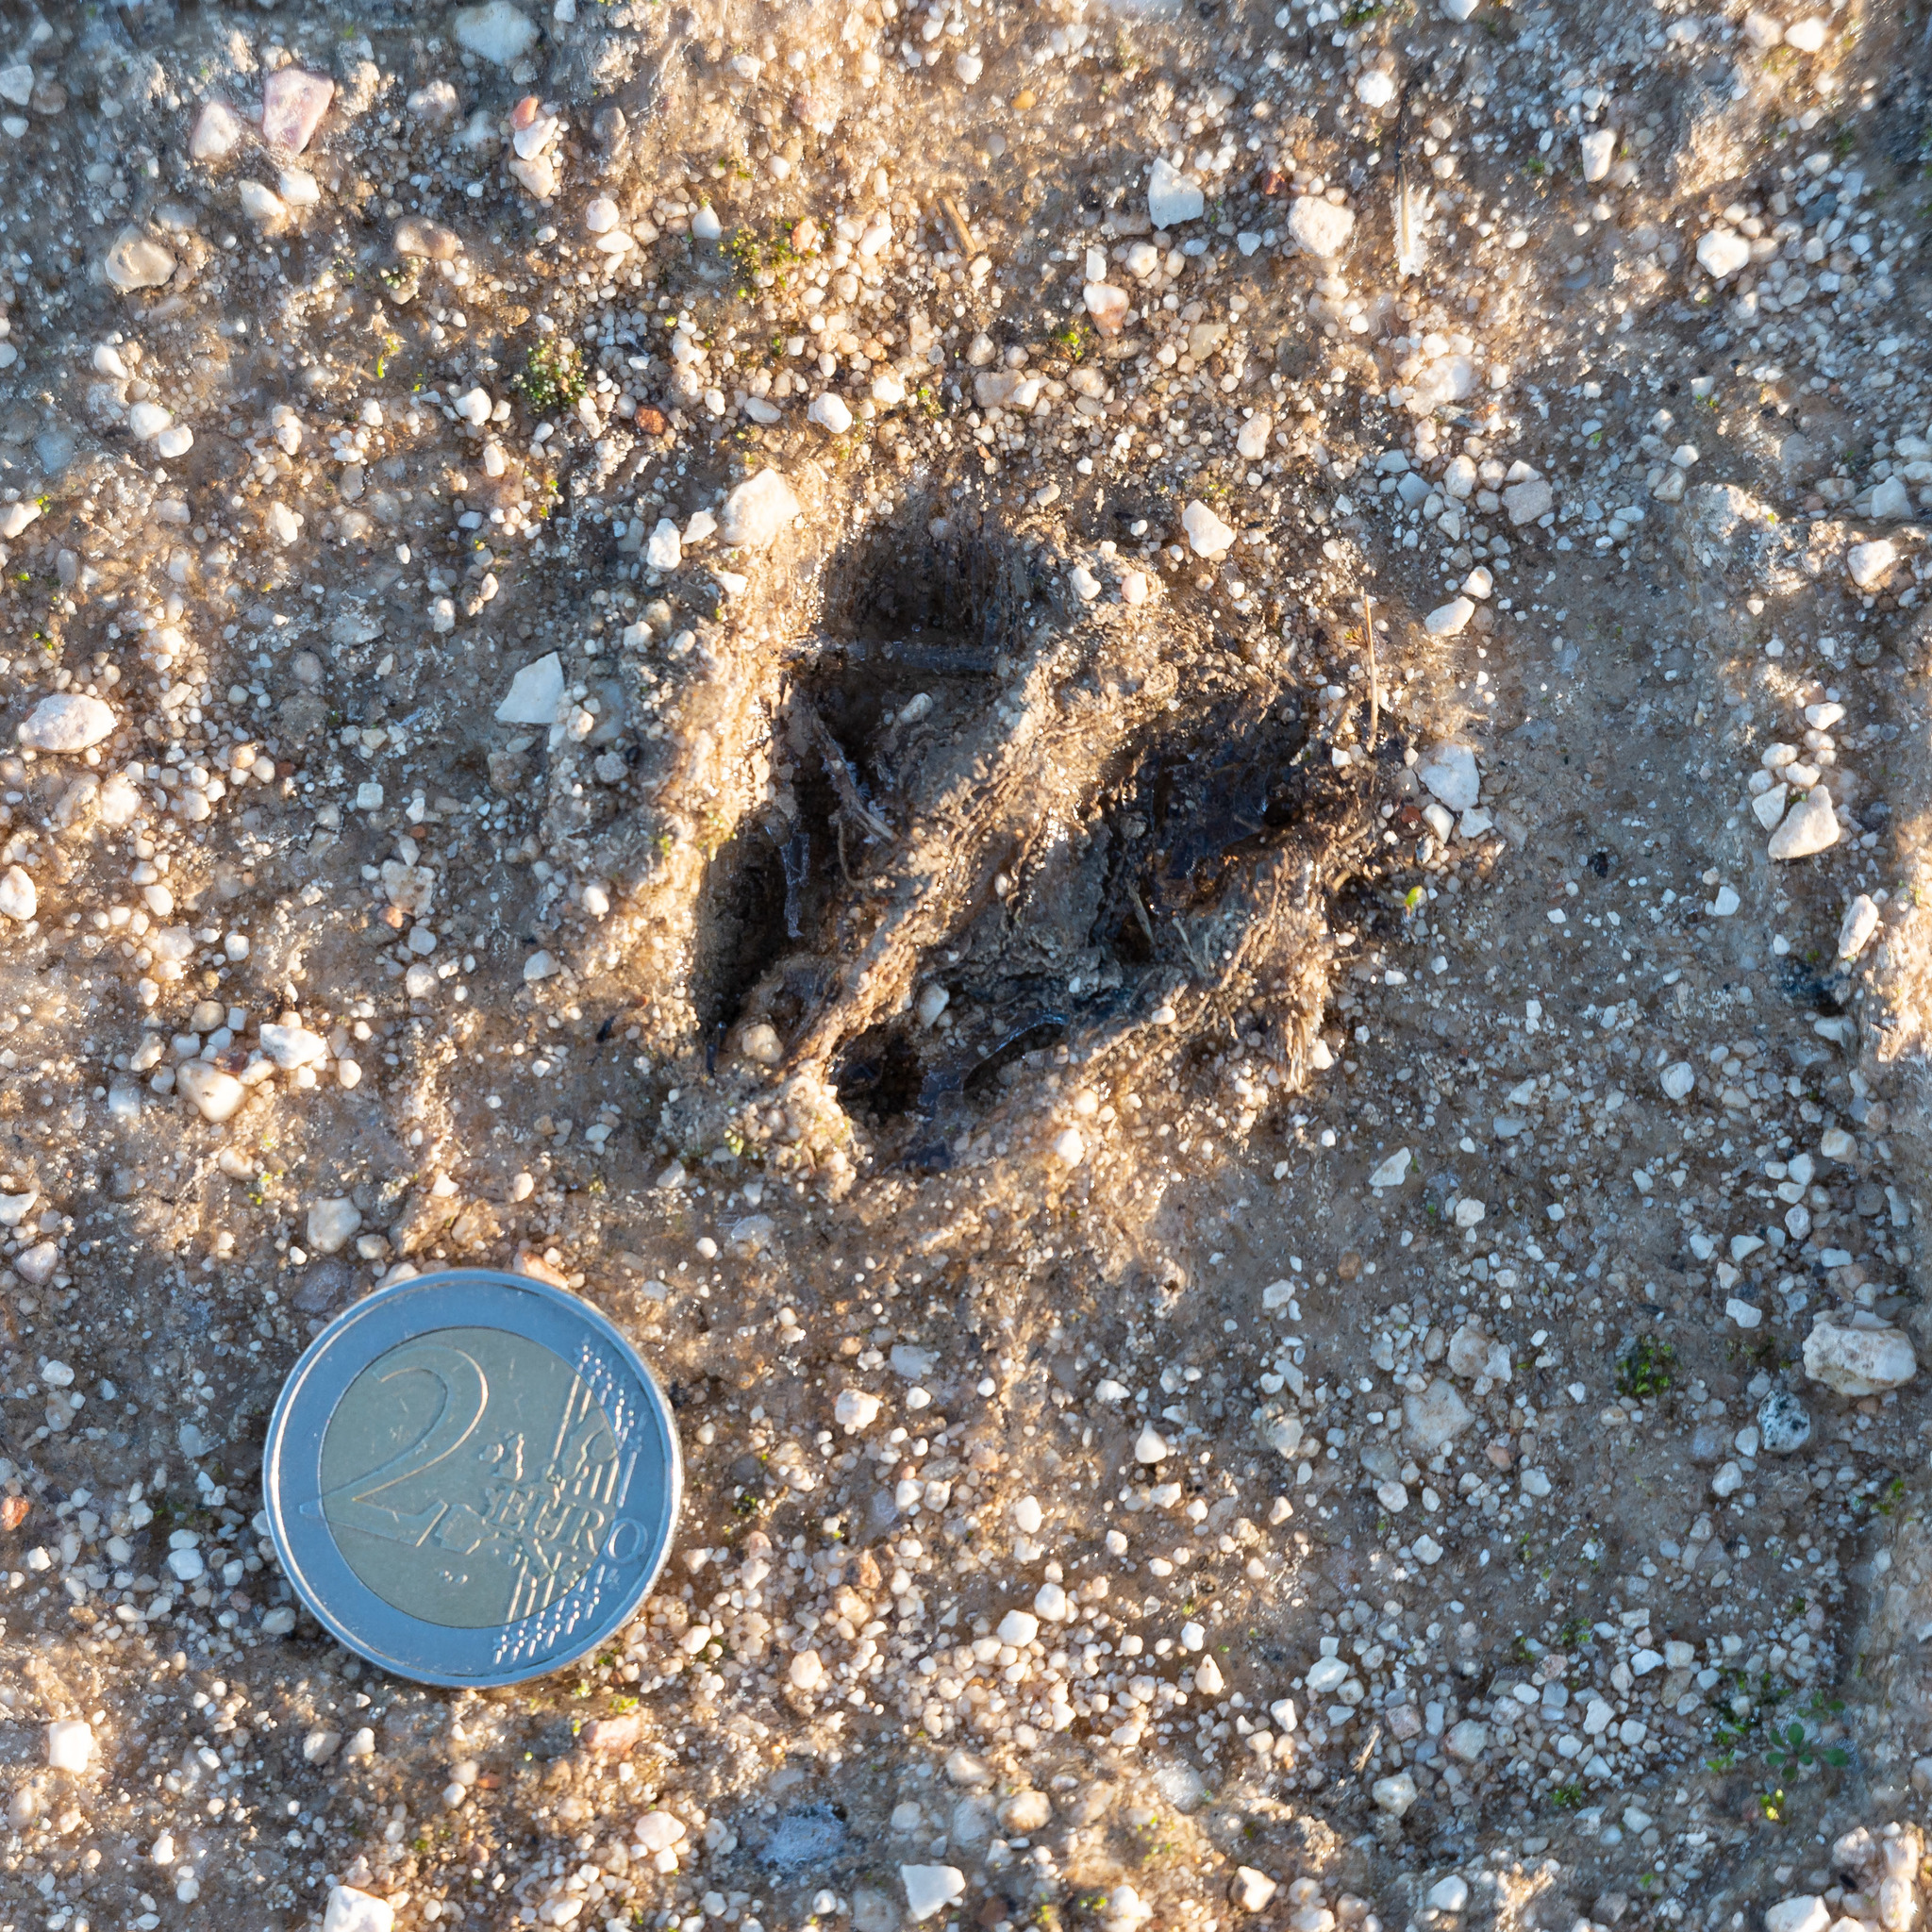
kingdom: Animalia
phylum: Chordata
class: Mammalia
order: Artiodactyla
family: Cervidae
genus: Capreolus
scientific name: Capreolus capreolus
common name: Western roe deer
